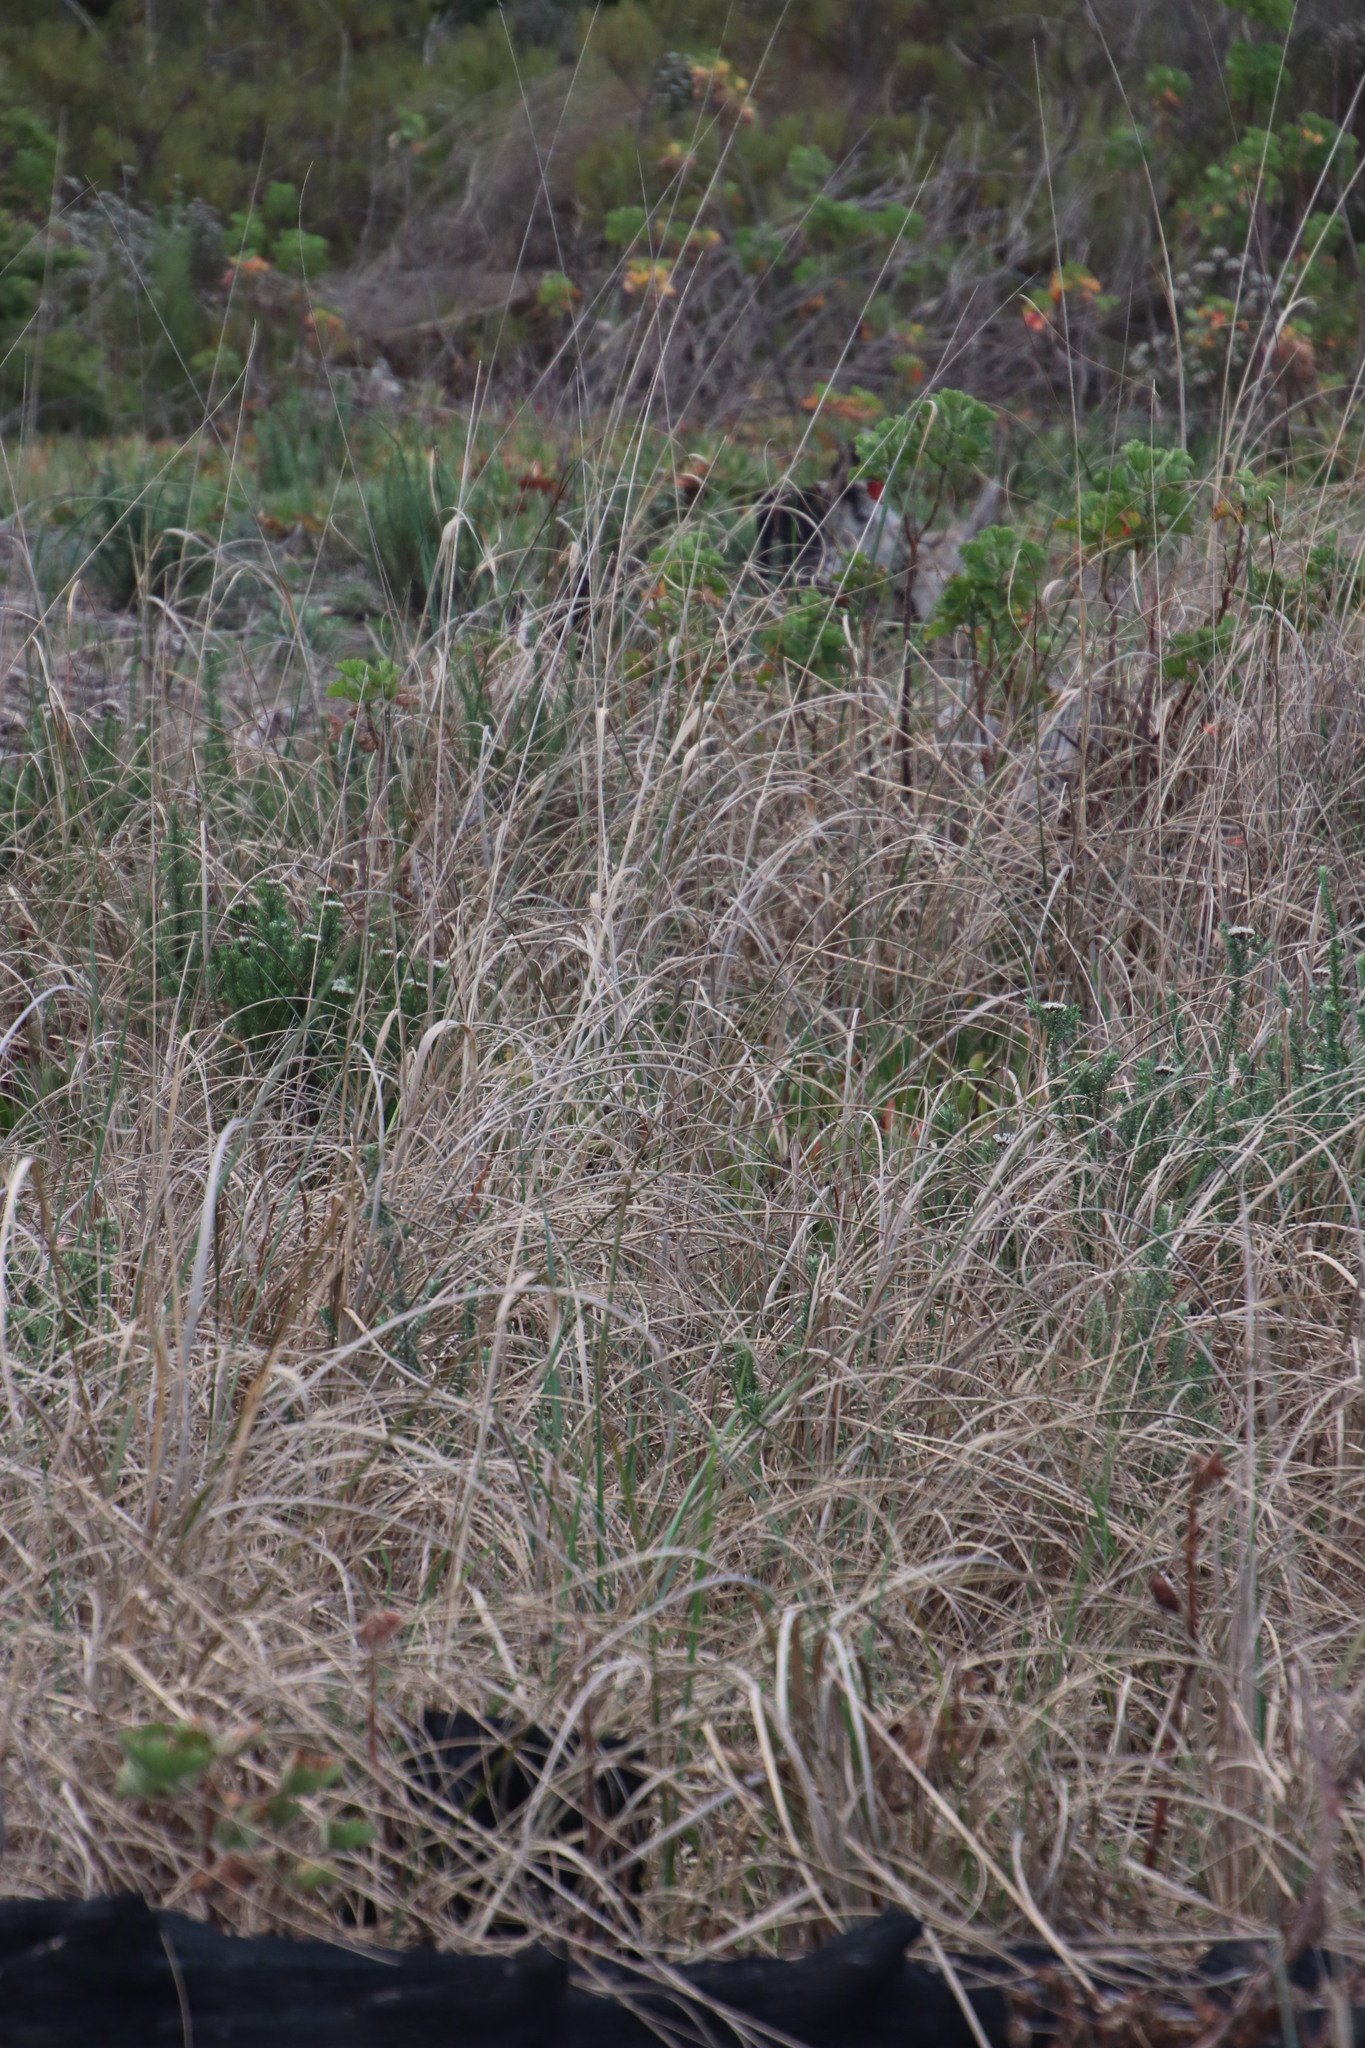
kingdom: Plantae
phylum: Tracheophyta
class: Liliopsida
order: Poales
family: Poaceae
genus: Cenchrus
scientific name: Cenchrus caudatus
